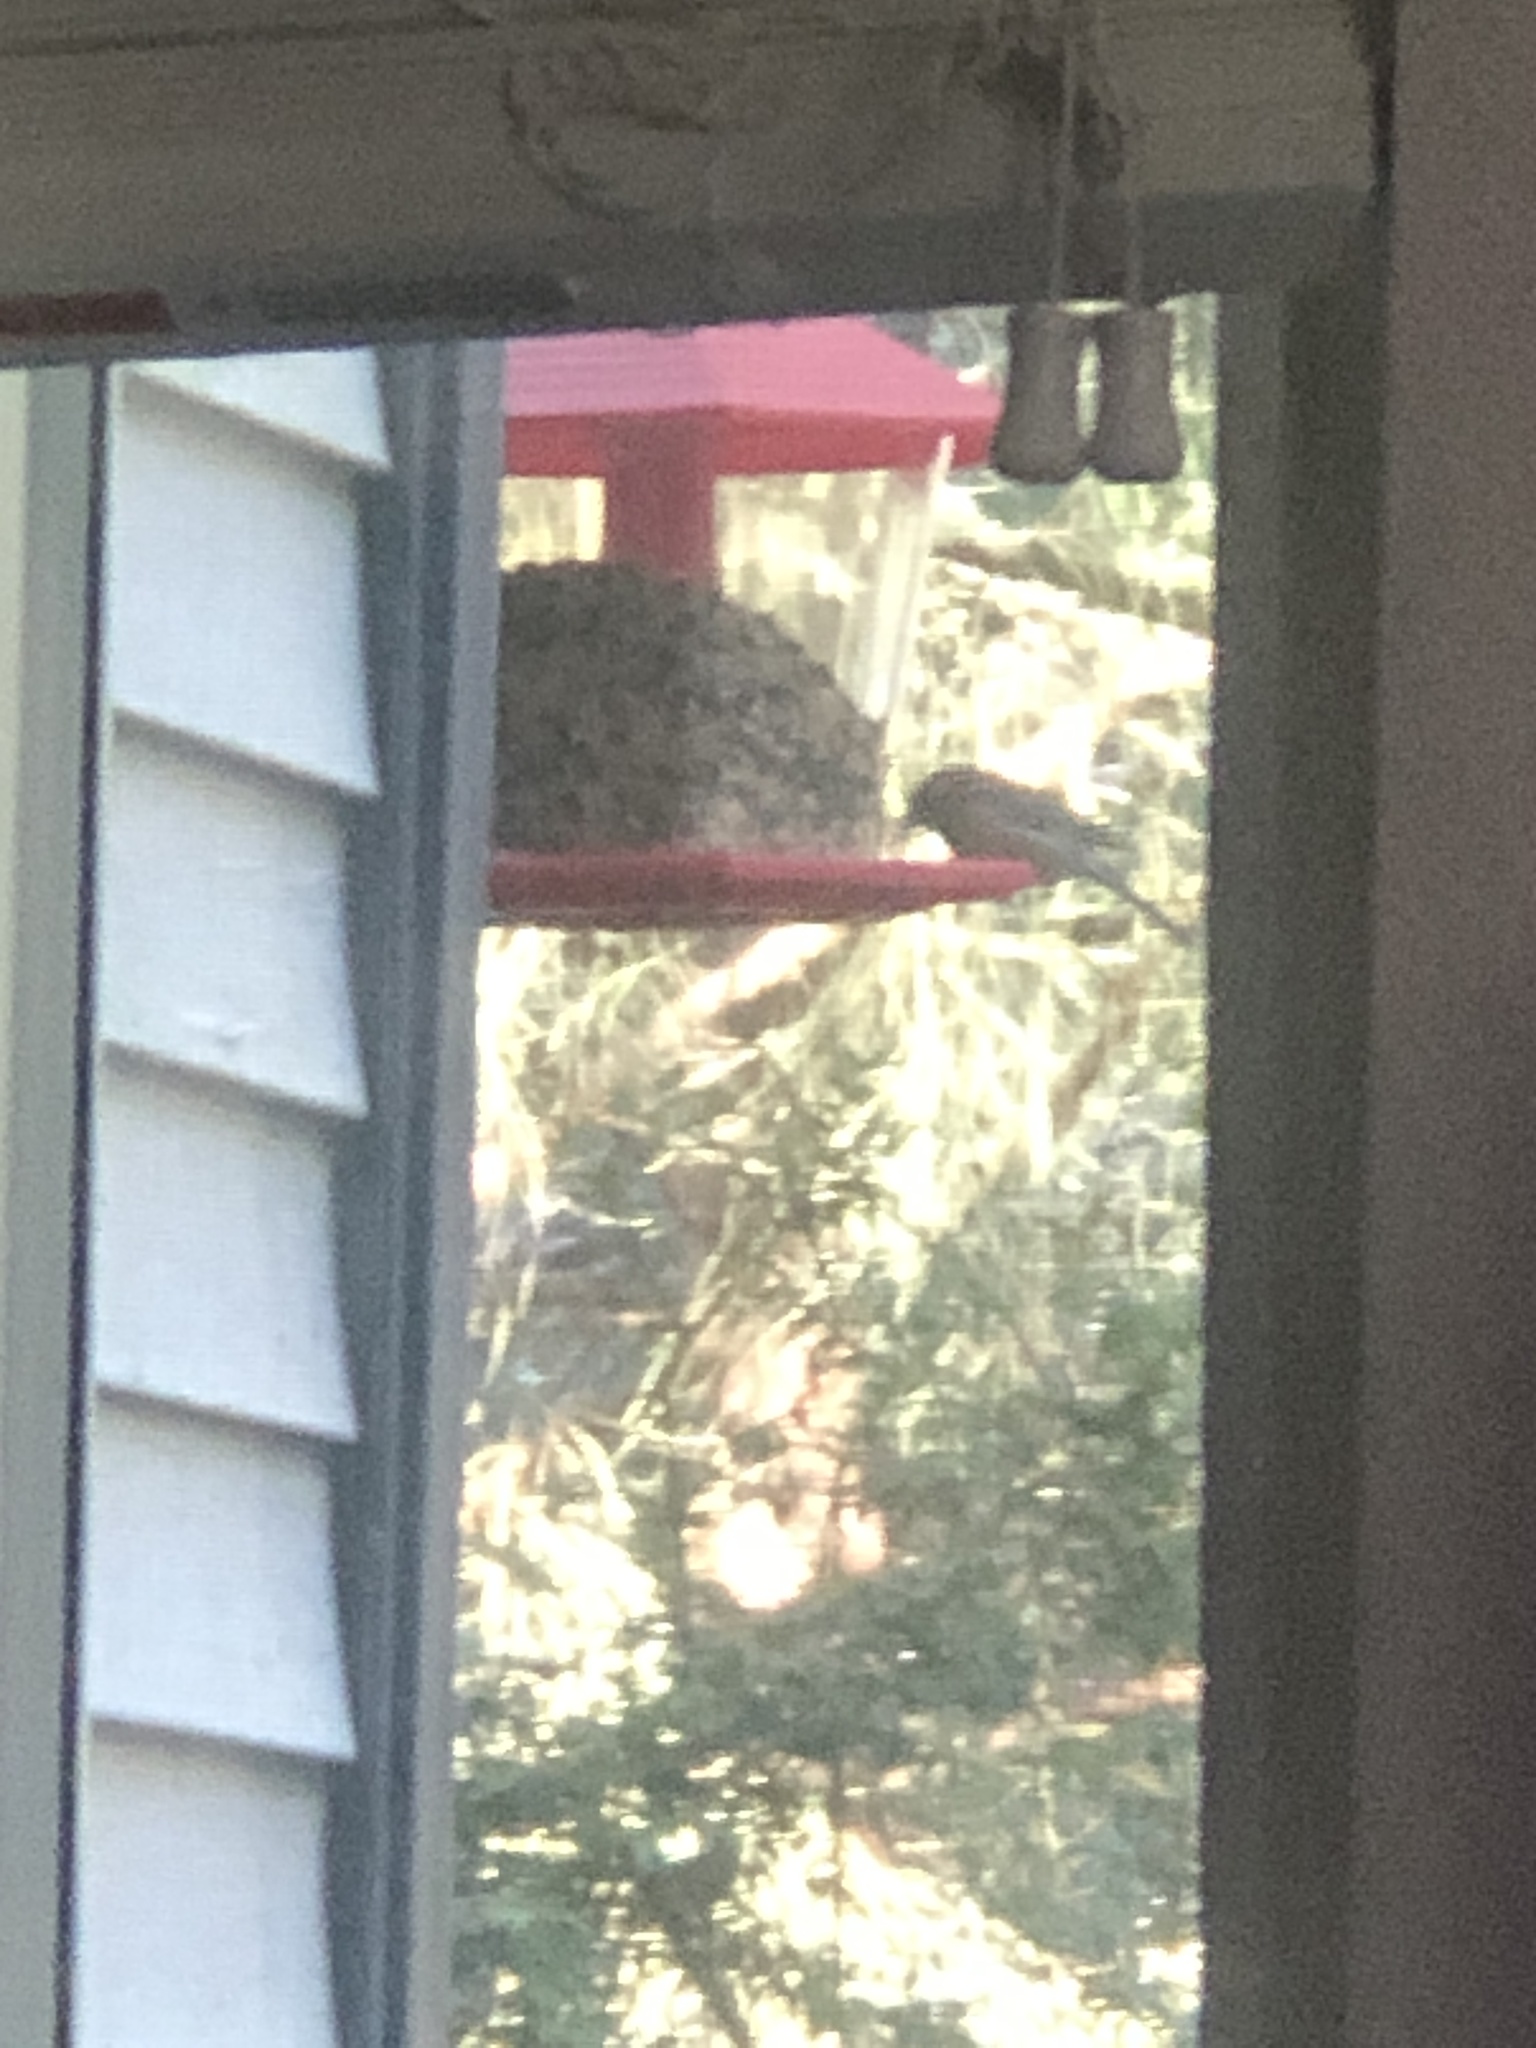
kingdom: Animalia
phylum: Chordata
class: Aves
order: Passeriformes
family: Passerellidae
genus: Junco
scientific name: Junco hyemalis
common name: Dark-eyed junco
